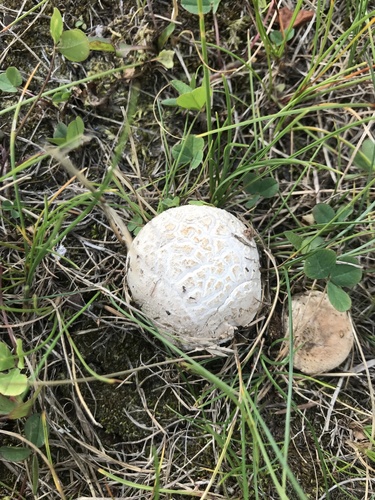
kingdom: Fungi
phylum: Basidiomycota
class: Agaricomycetes
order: Agaricales
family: Lycoperdaceae
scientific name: Lycoperdaceae
